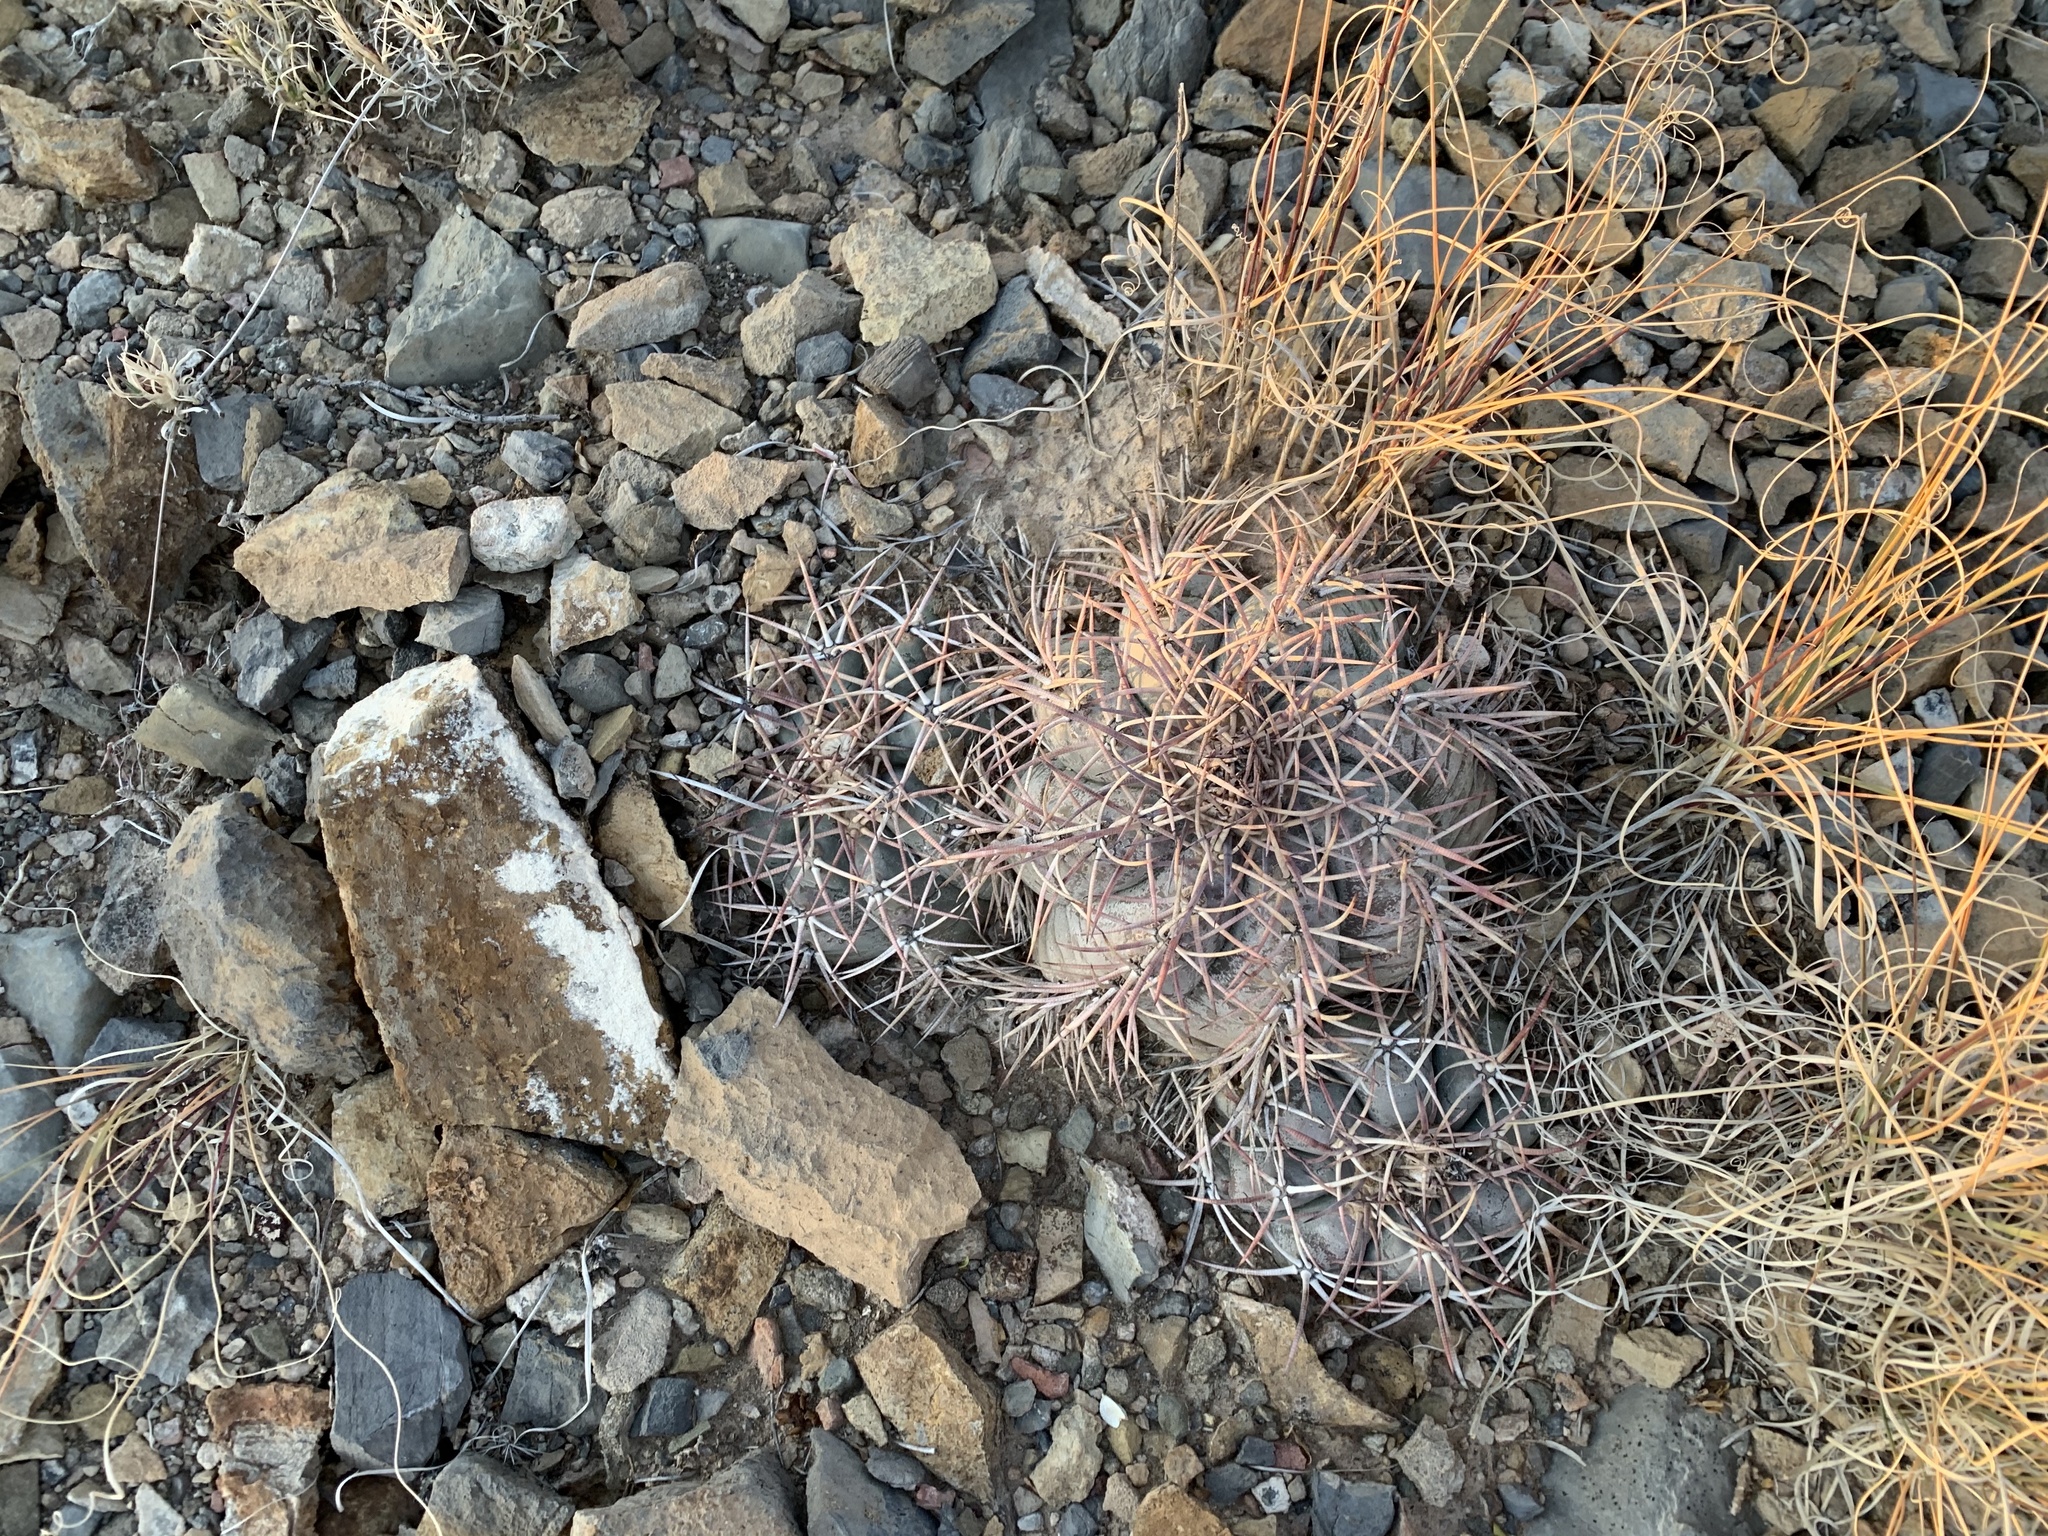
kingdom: Plantae
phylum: Tracheophyta
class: Magnoliopsida
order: Caryophyllales
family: Cactaceae
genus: Echinocactus
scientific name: Echinocactus horizonthalonius
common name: Devilshead
